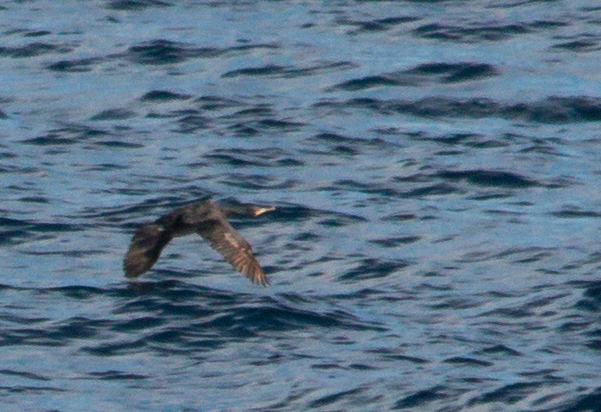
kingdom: Animalia
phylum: Chordata
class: Aves
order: Suliformes
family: Phalacrocoracidae
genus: Phalacrocorax
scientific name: Phalacrocorax aristotelis
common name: European shag
